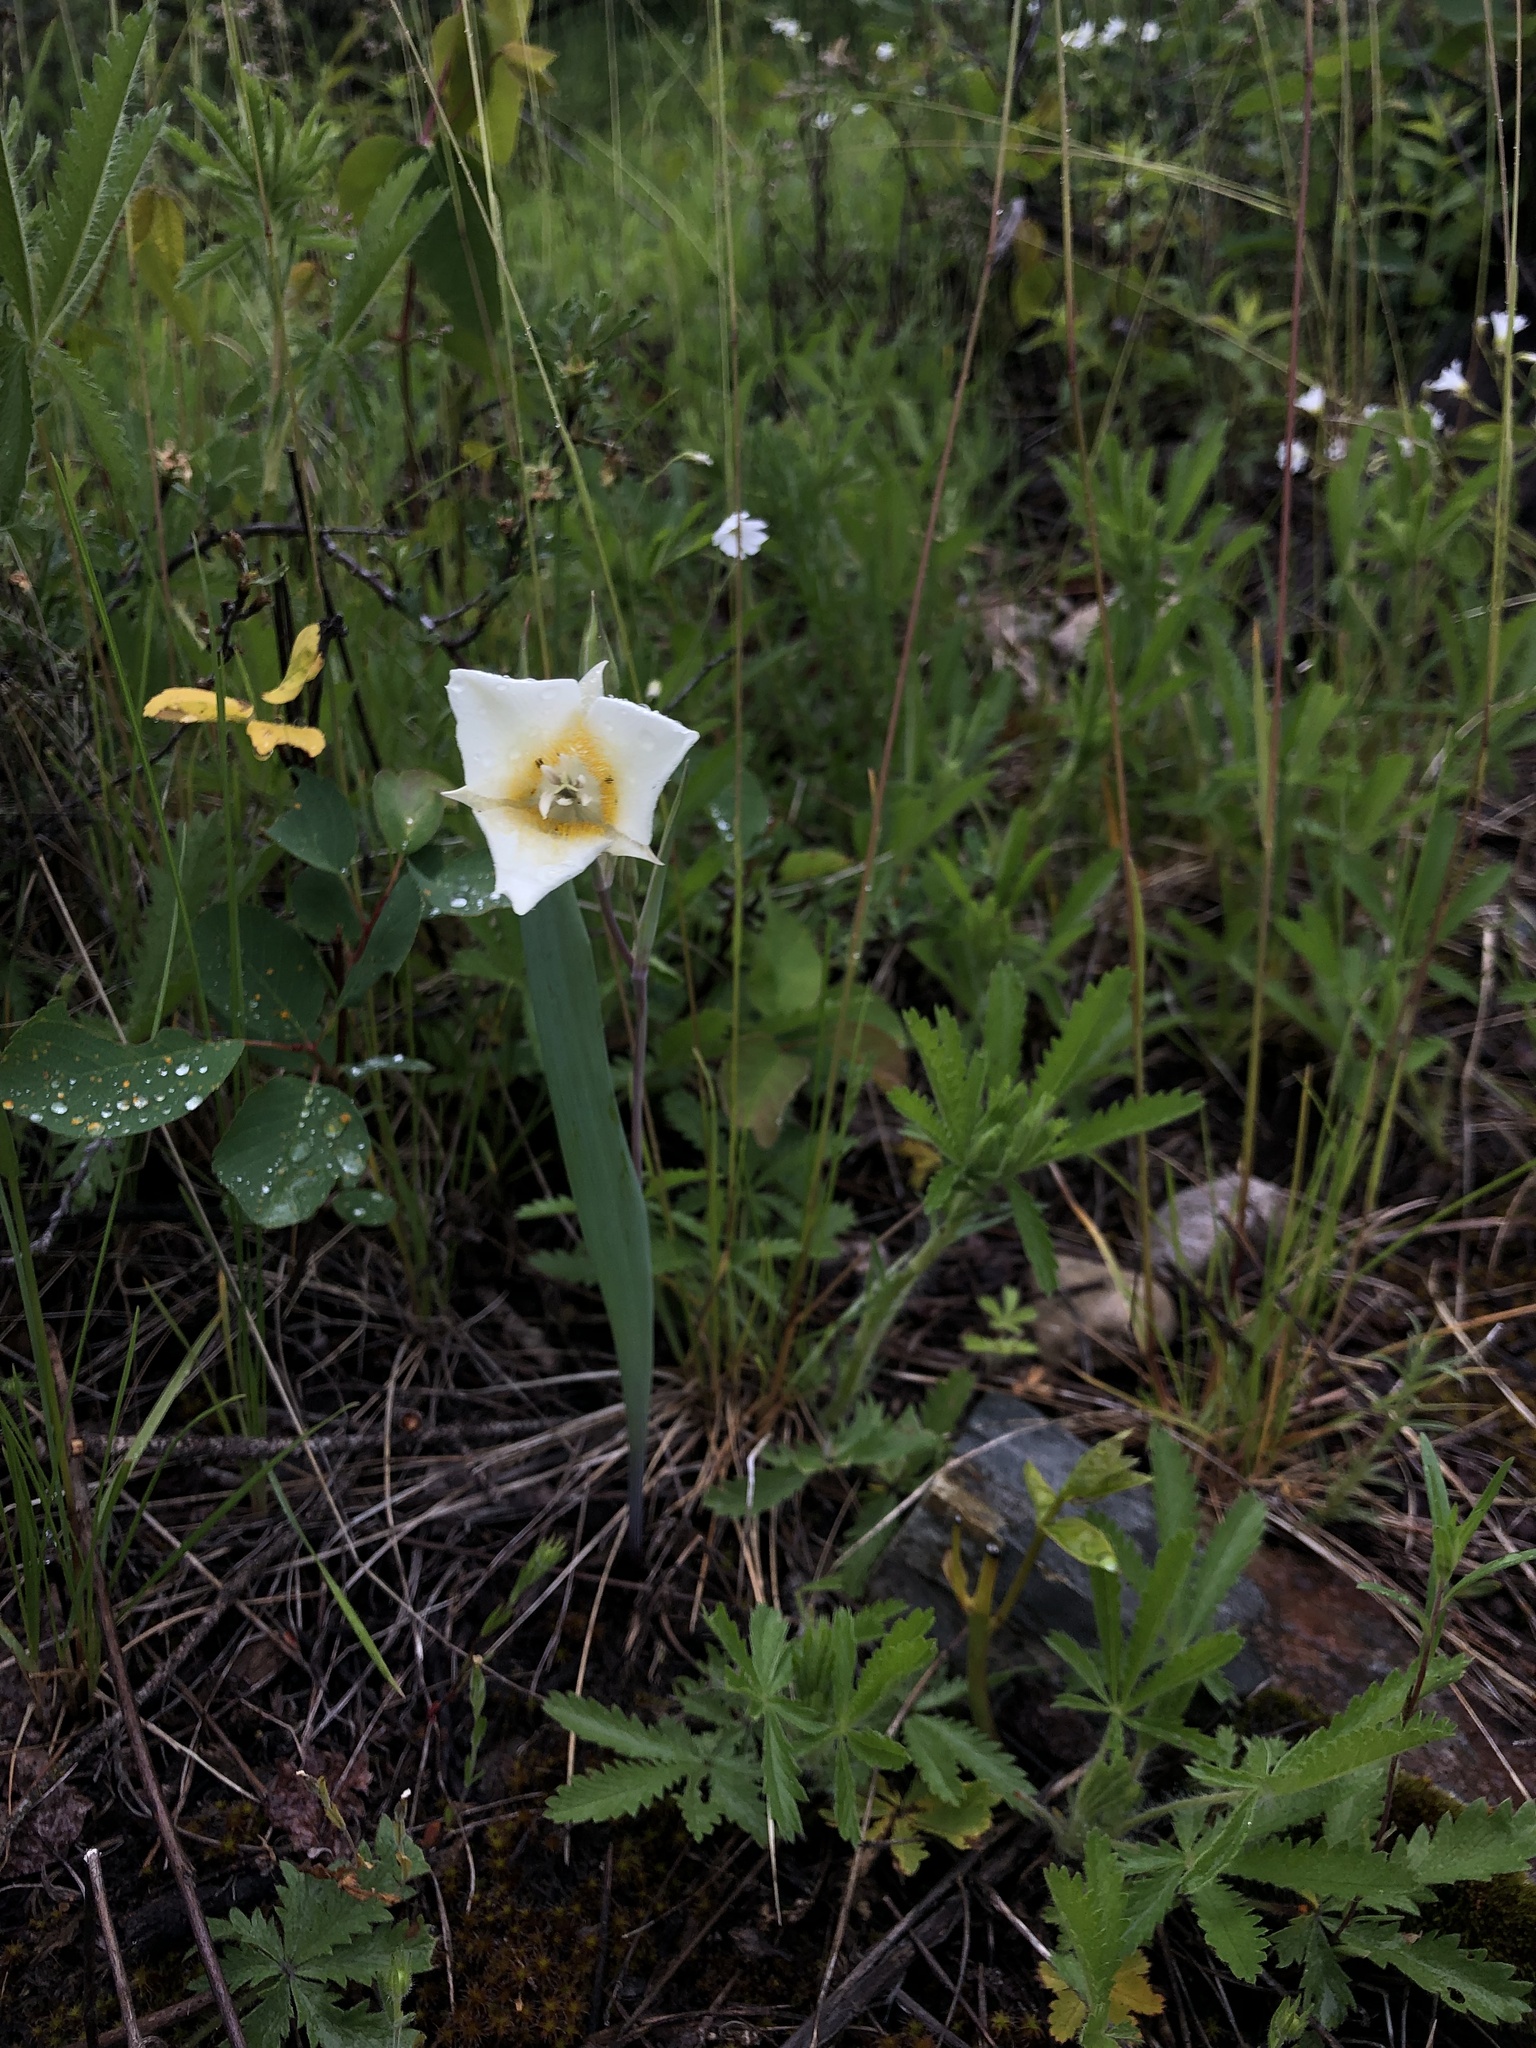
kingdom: Plantae
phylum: Tracheophyta
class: Liliopsida
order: Liliales
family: Liliaceae
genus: Calochortus
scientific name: Calochortus apiculatus
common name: Baker's mariposa lily
